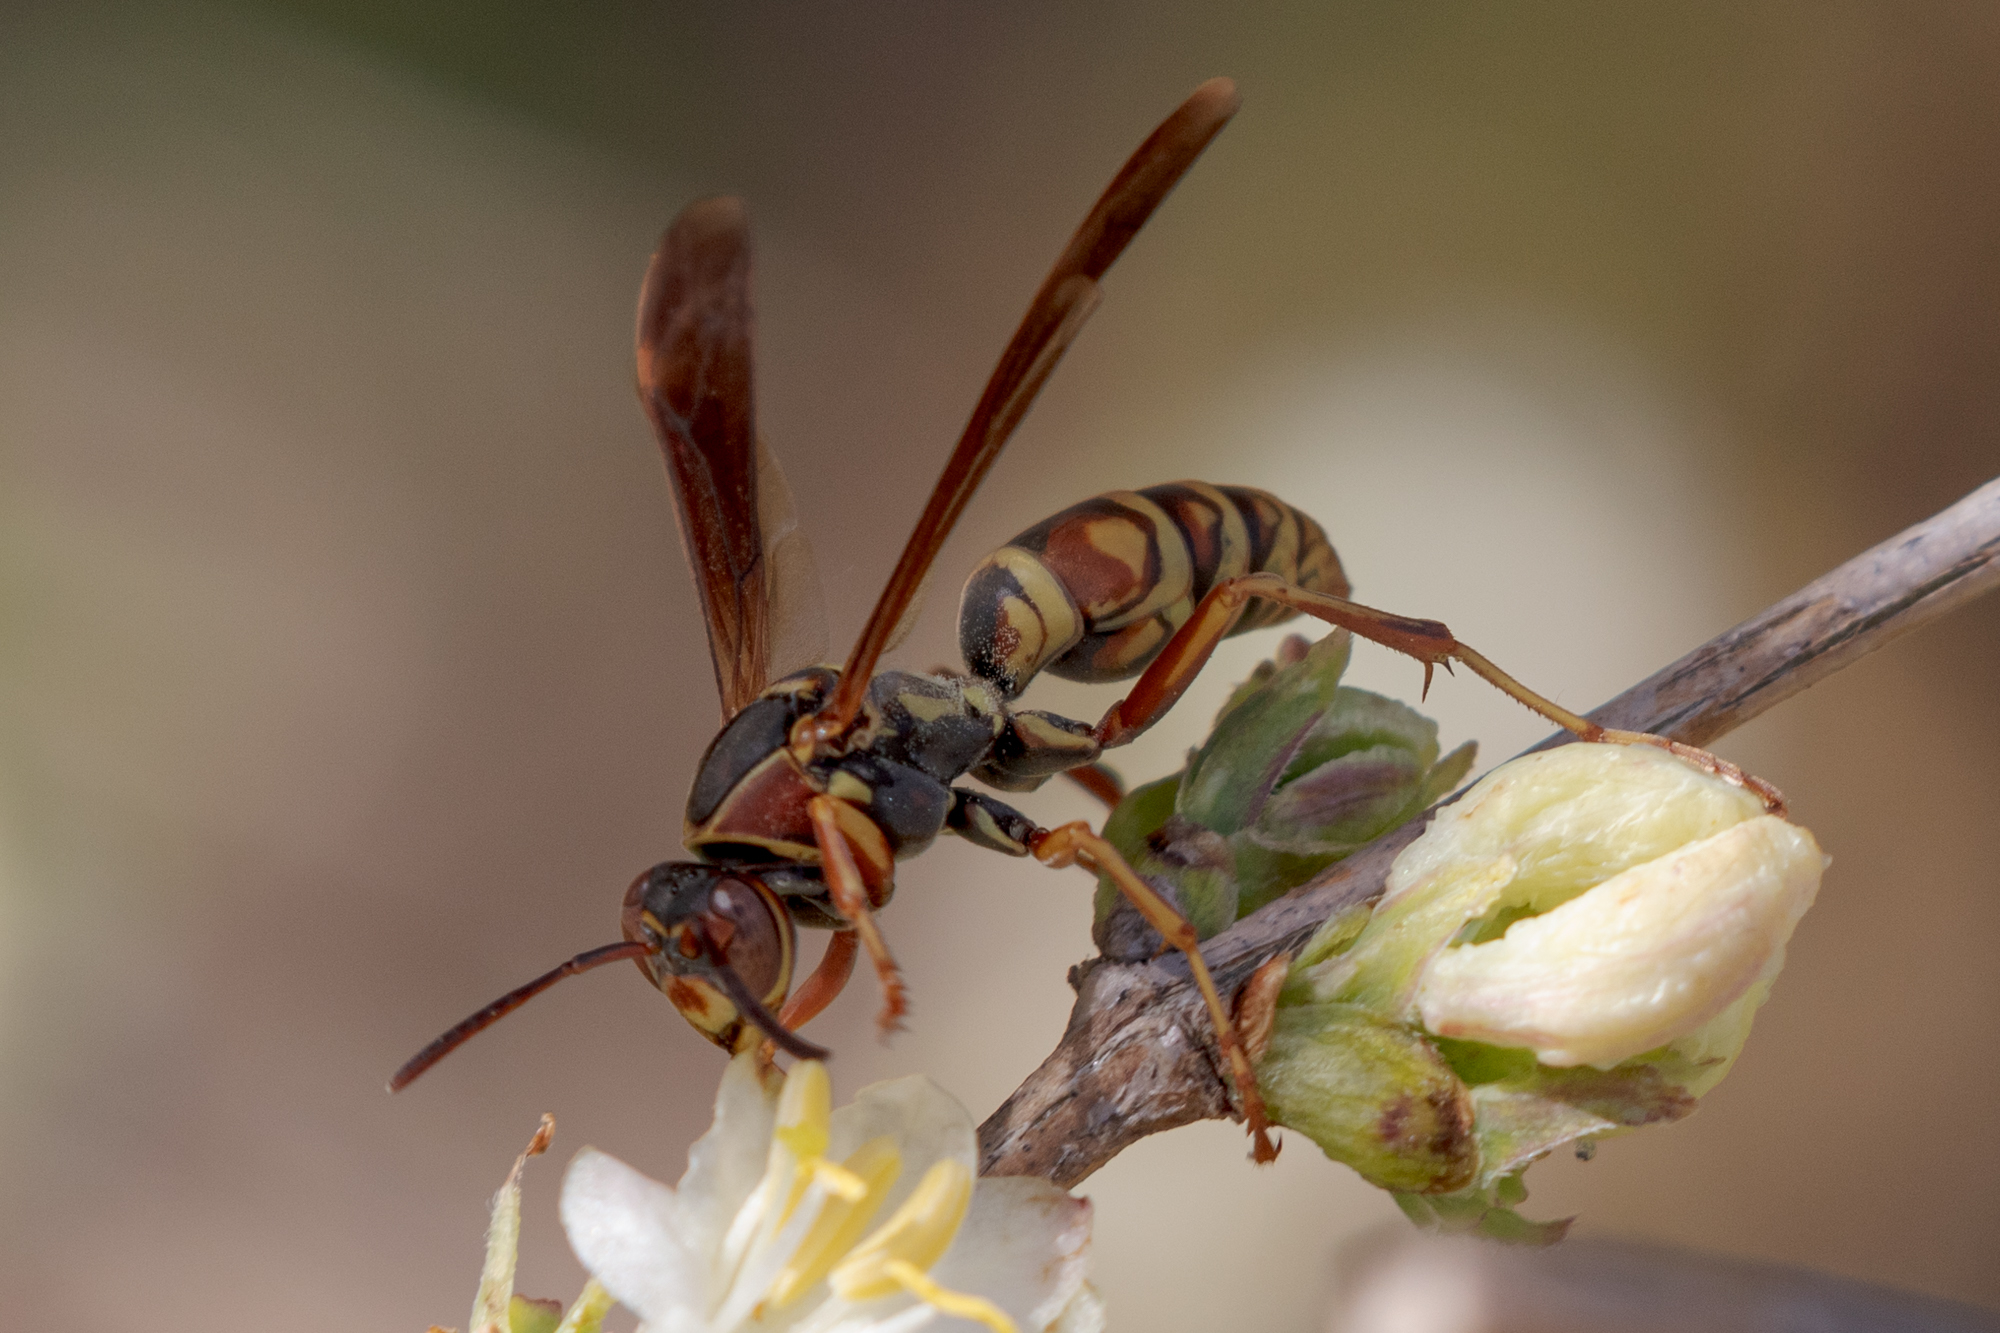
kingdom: Animalia
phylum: Arthropoda
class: Insecta
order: Hymenoptera
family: Eumenidae
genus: Polistes
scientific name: Polistes fuscatus
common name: Dark paper wasp
